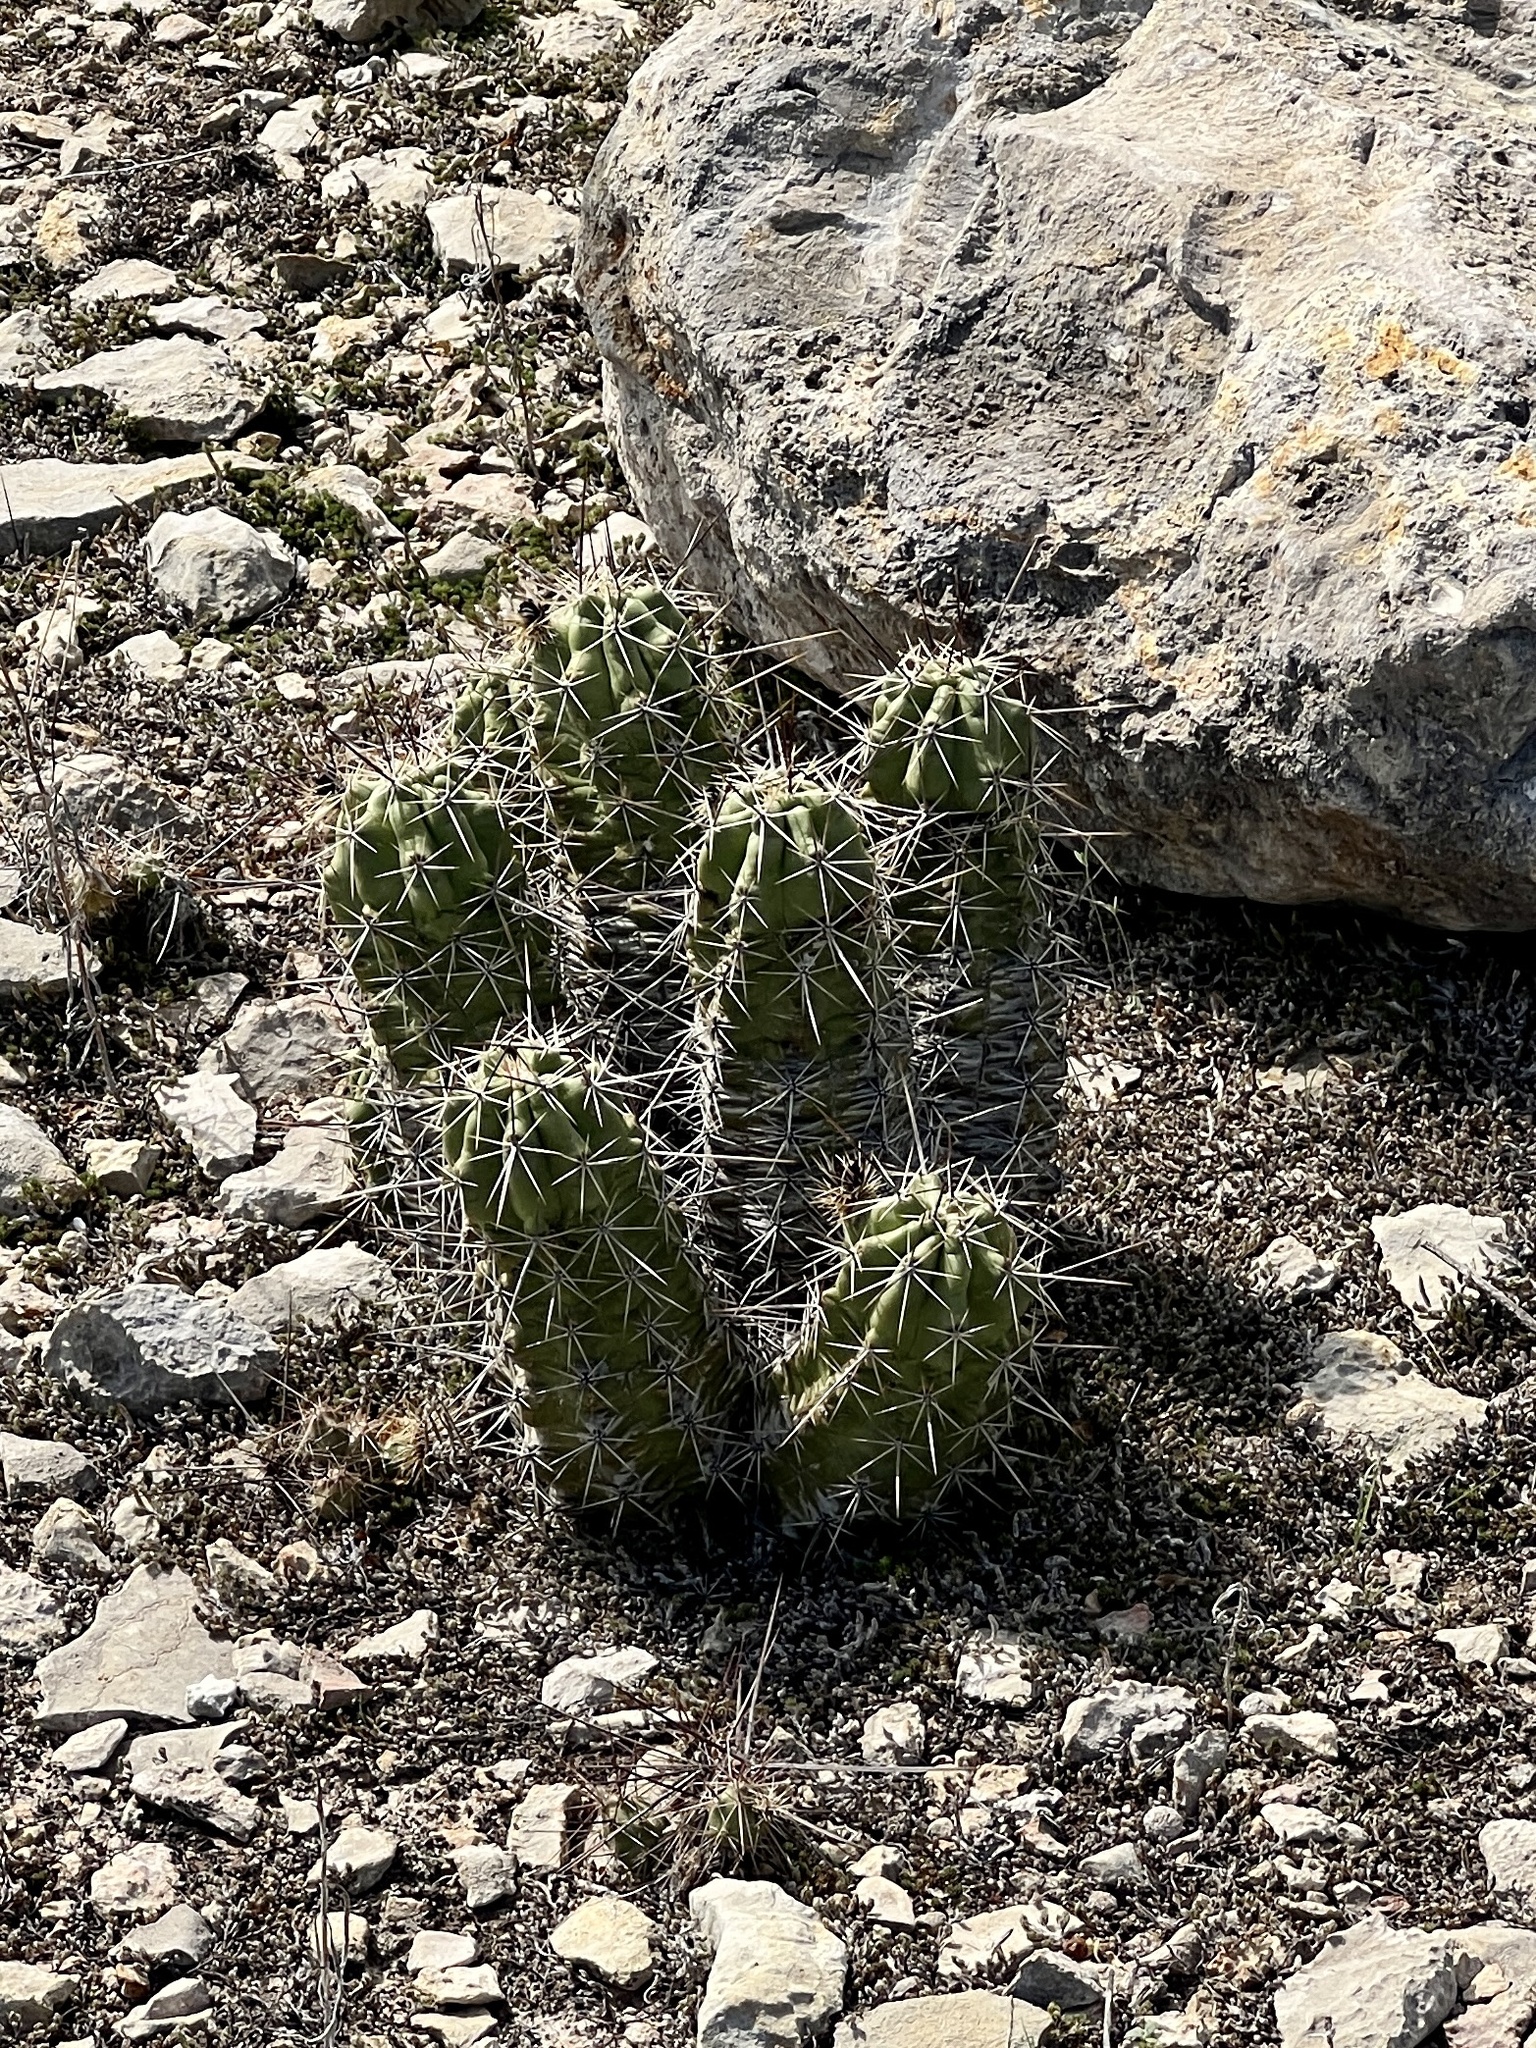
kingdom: Plantae
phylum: Tracheophyta
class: Magnoliopsida
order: Caryophyllales
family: Cactaceae
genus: Echinocereus
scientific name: Echinocereus enneacanthus
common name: Pitaya
